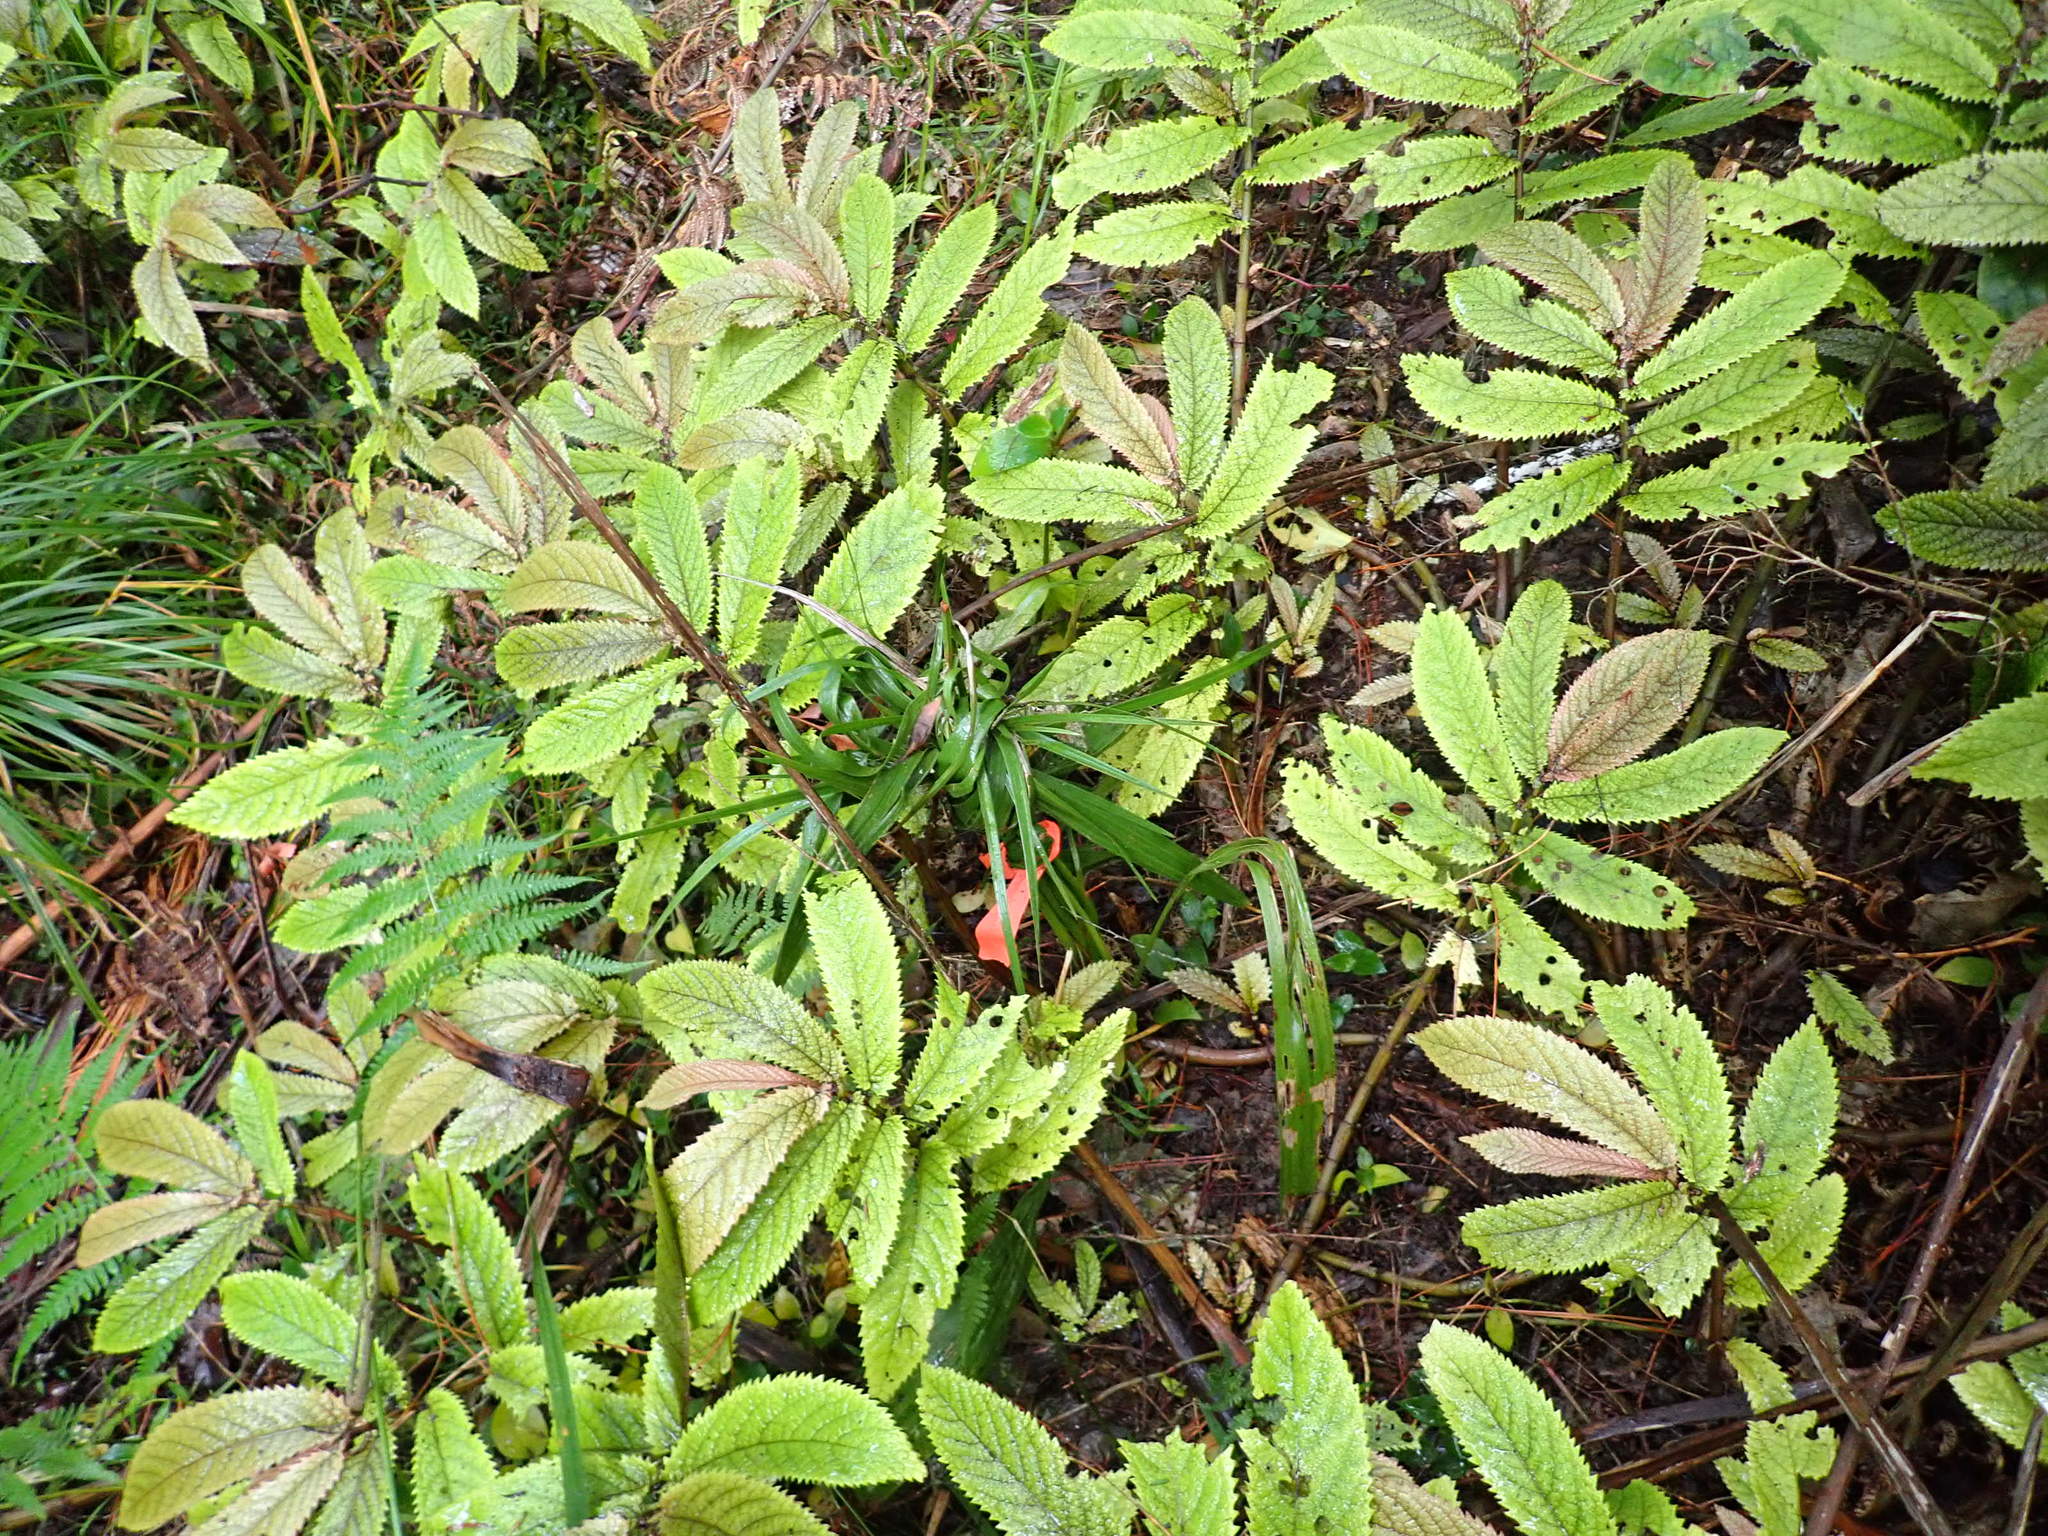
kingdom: Plantae
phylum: Tracheophyta
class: Liliopsida
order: Arecales
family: Arecaceae
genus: Phoenix
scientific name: Phoenix canariensis
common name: Canary island date palm
